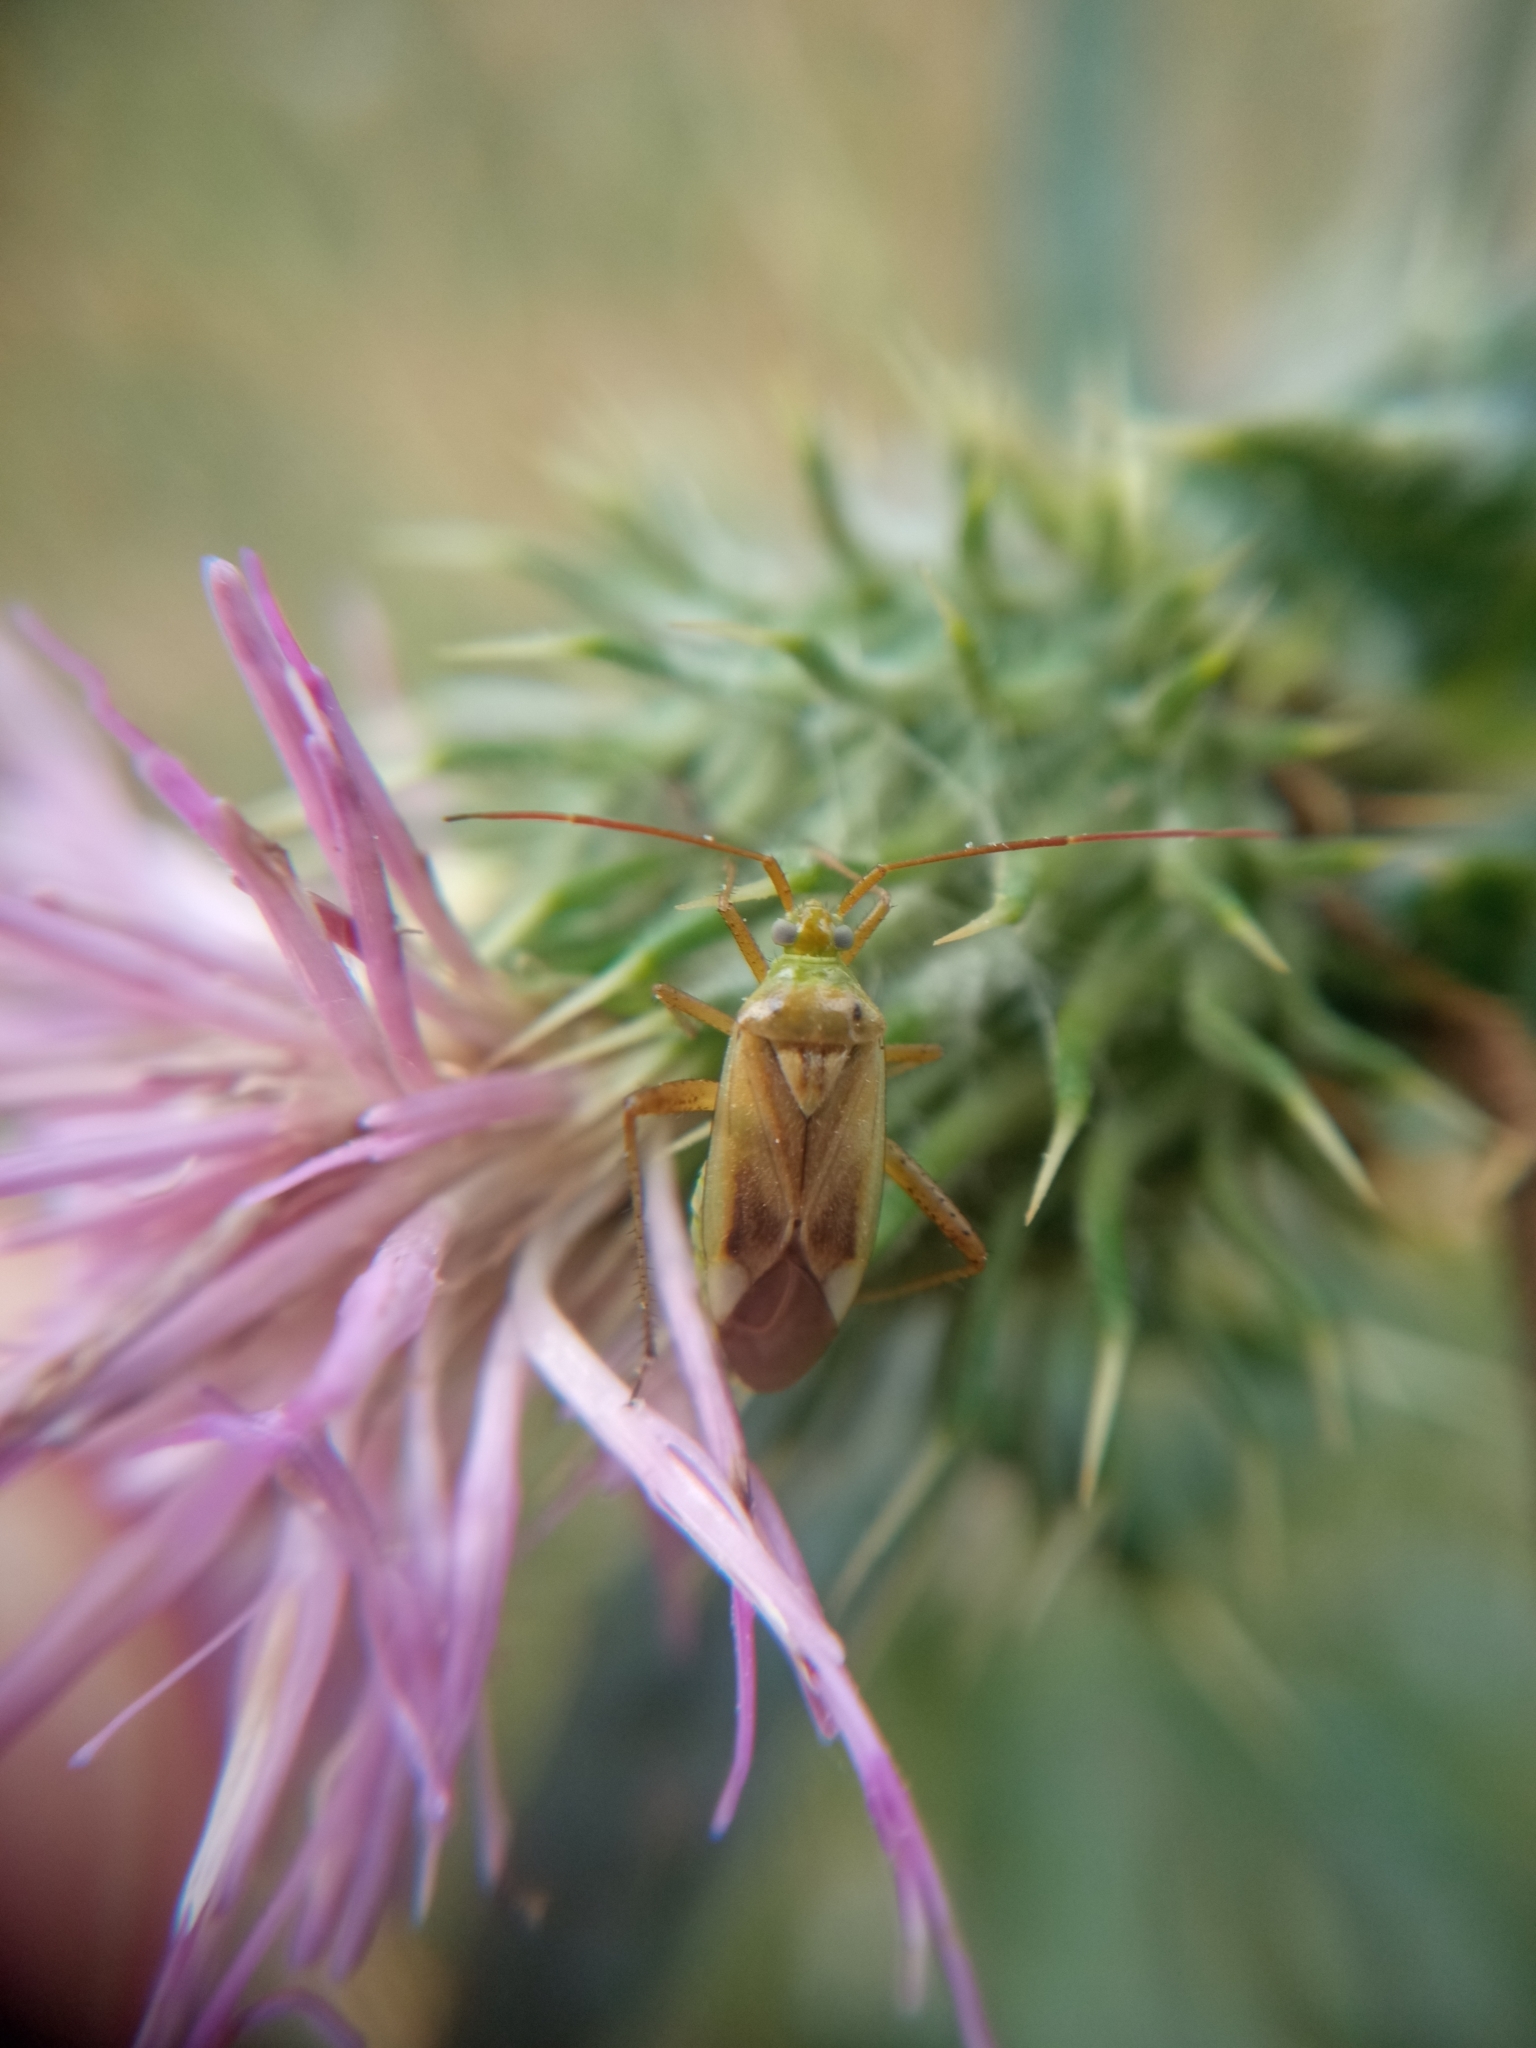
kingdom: Animalia
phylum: Arthropoda
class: Insecta
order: Hemiptera
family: Miridae
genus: Adelphocoris
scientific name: Adelphocoris lineolatus
